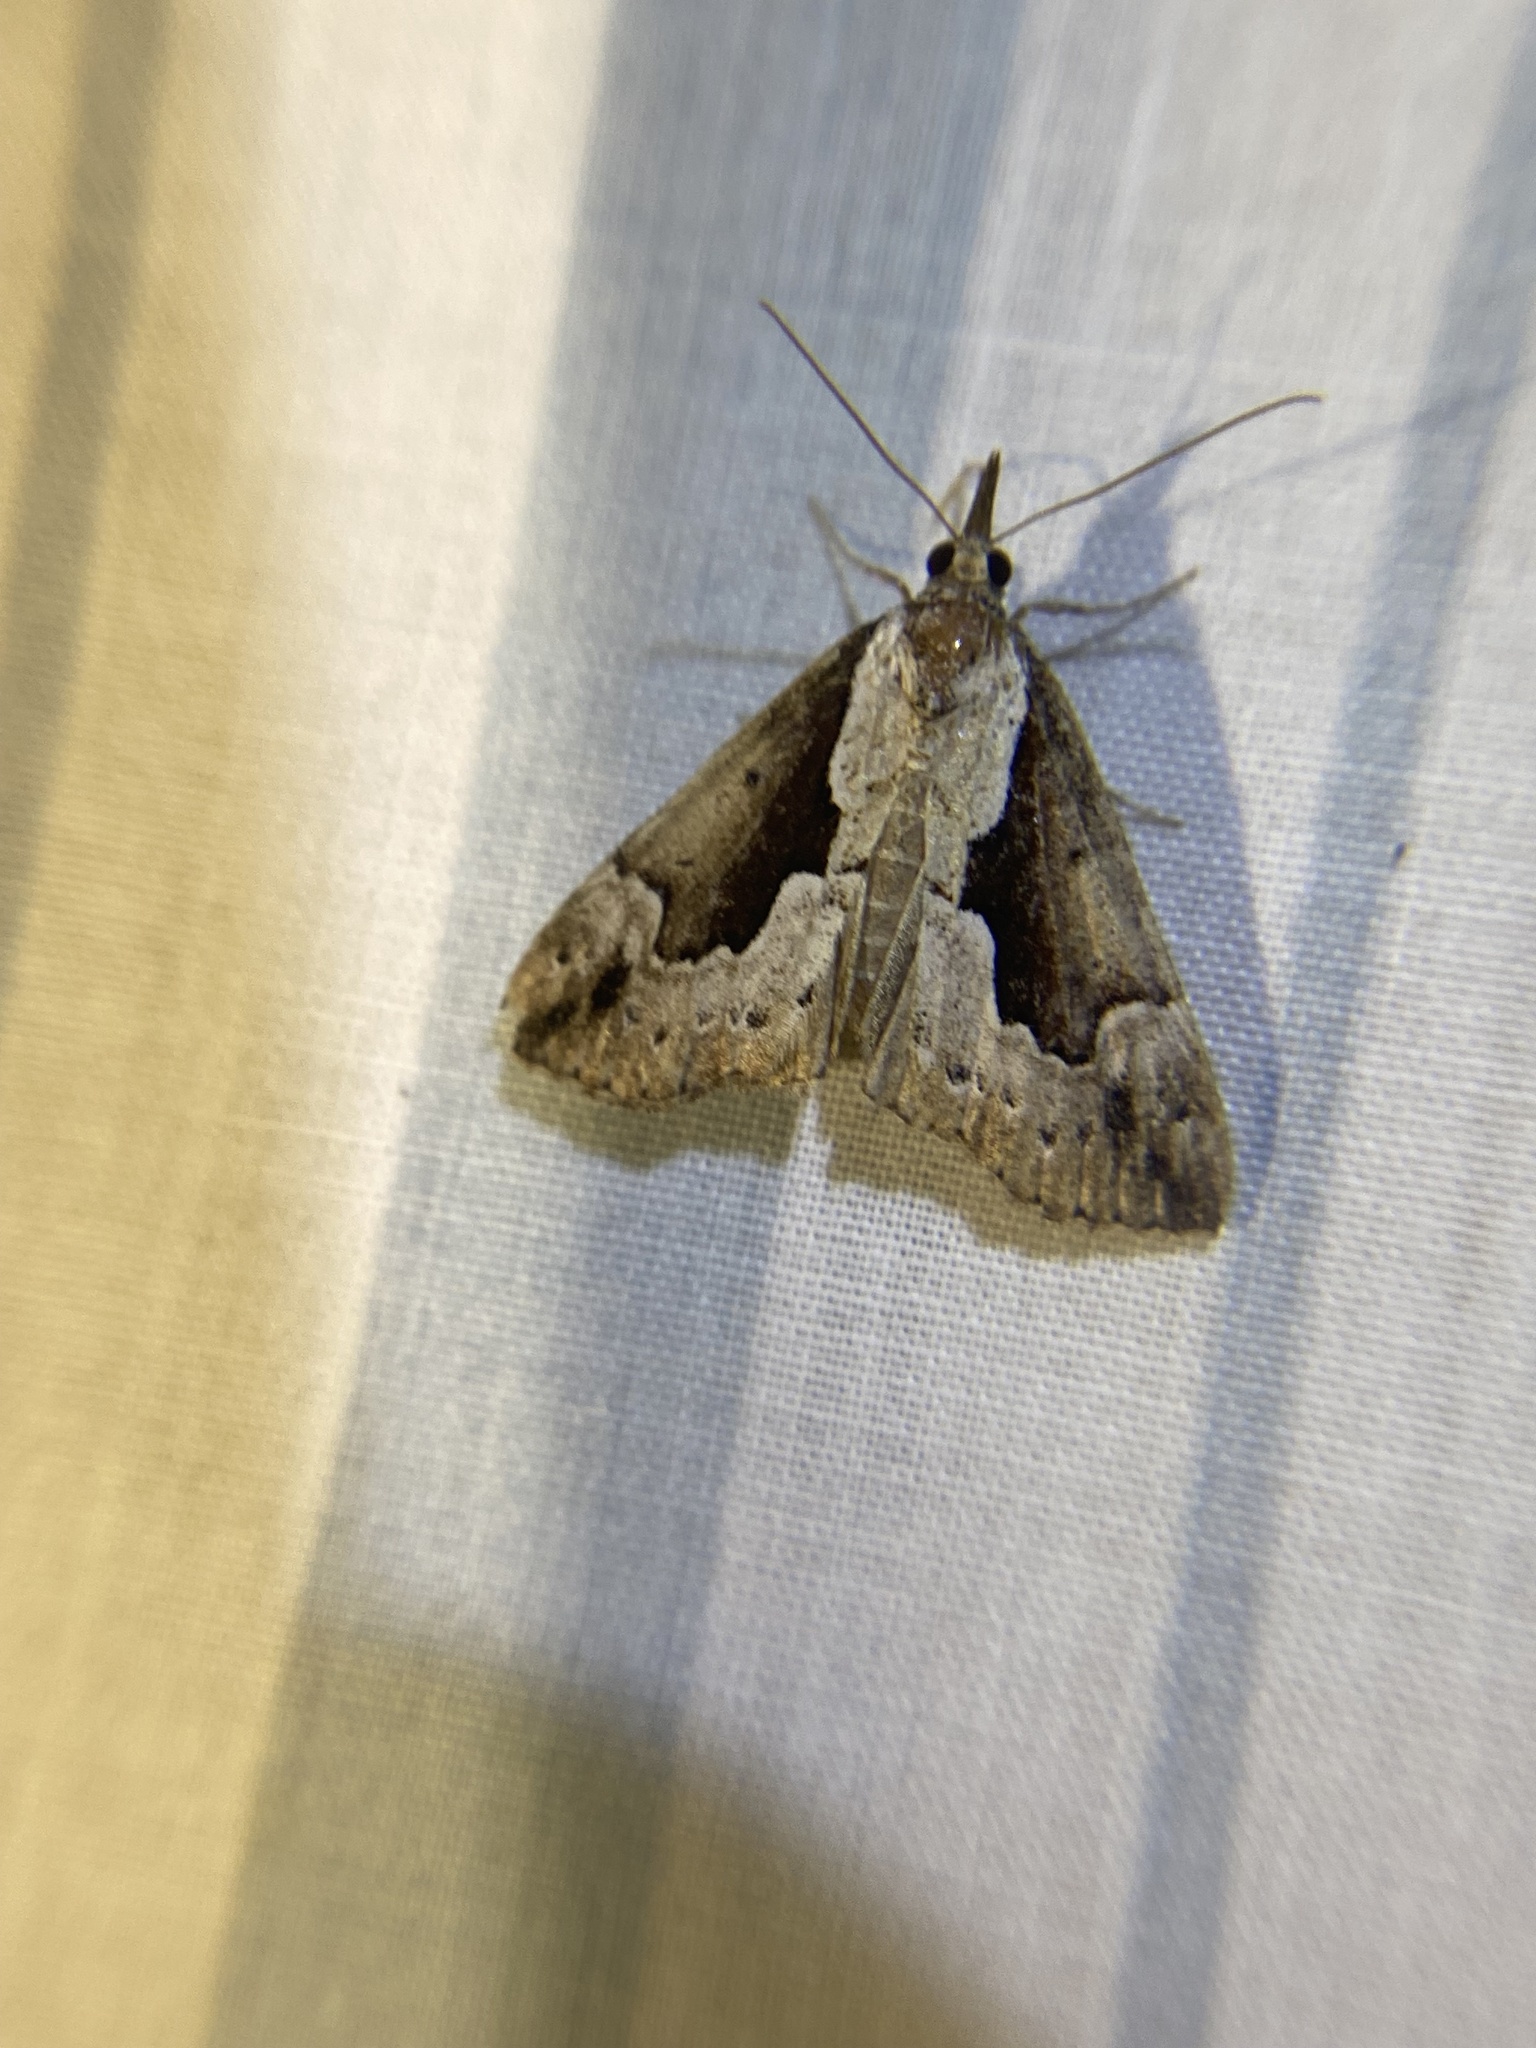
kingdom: Animalia
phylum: Arthropoda
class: Insecta
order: Lepidoptera
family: Erebidae
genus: Hypena
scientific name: Hypena baltimoralis
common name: Baltimore snout
